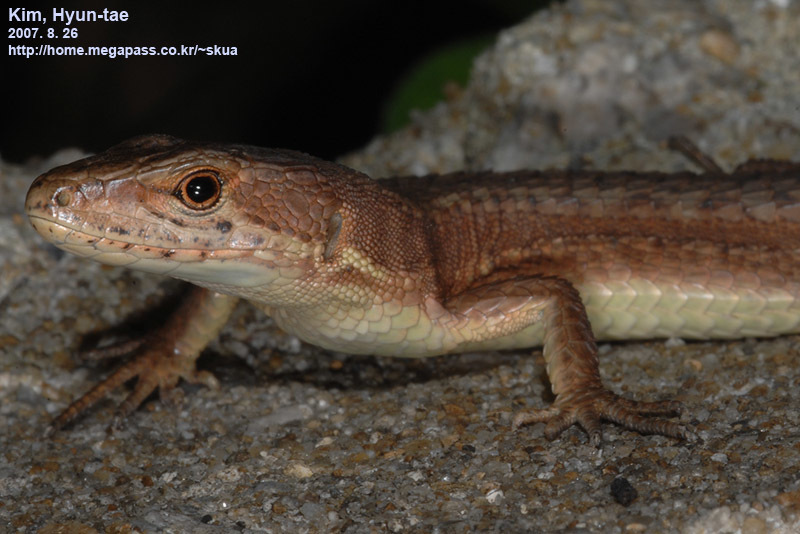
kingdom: Animalia
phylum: Chordata
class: Squamata
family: Lacertidae
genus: Takydromus
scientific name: Takydromus amurensis
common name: Amur grass lizard
